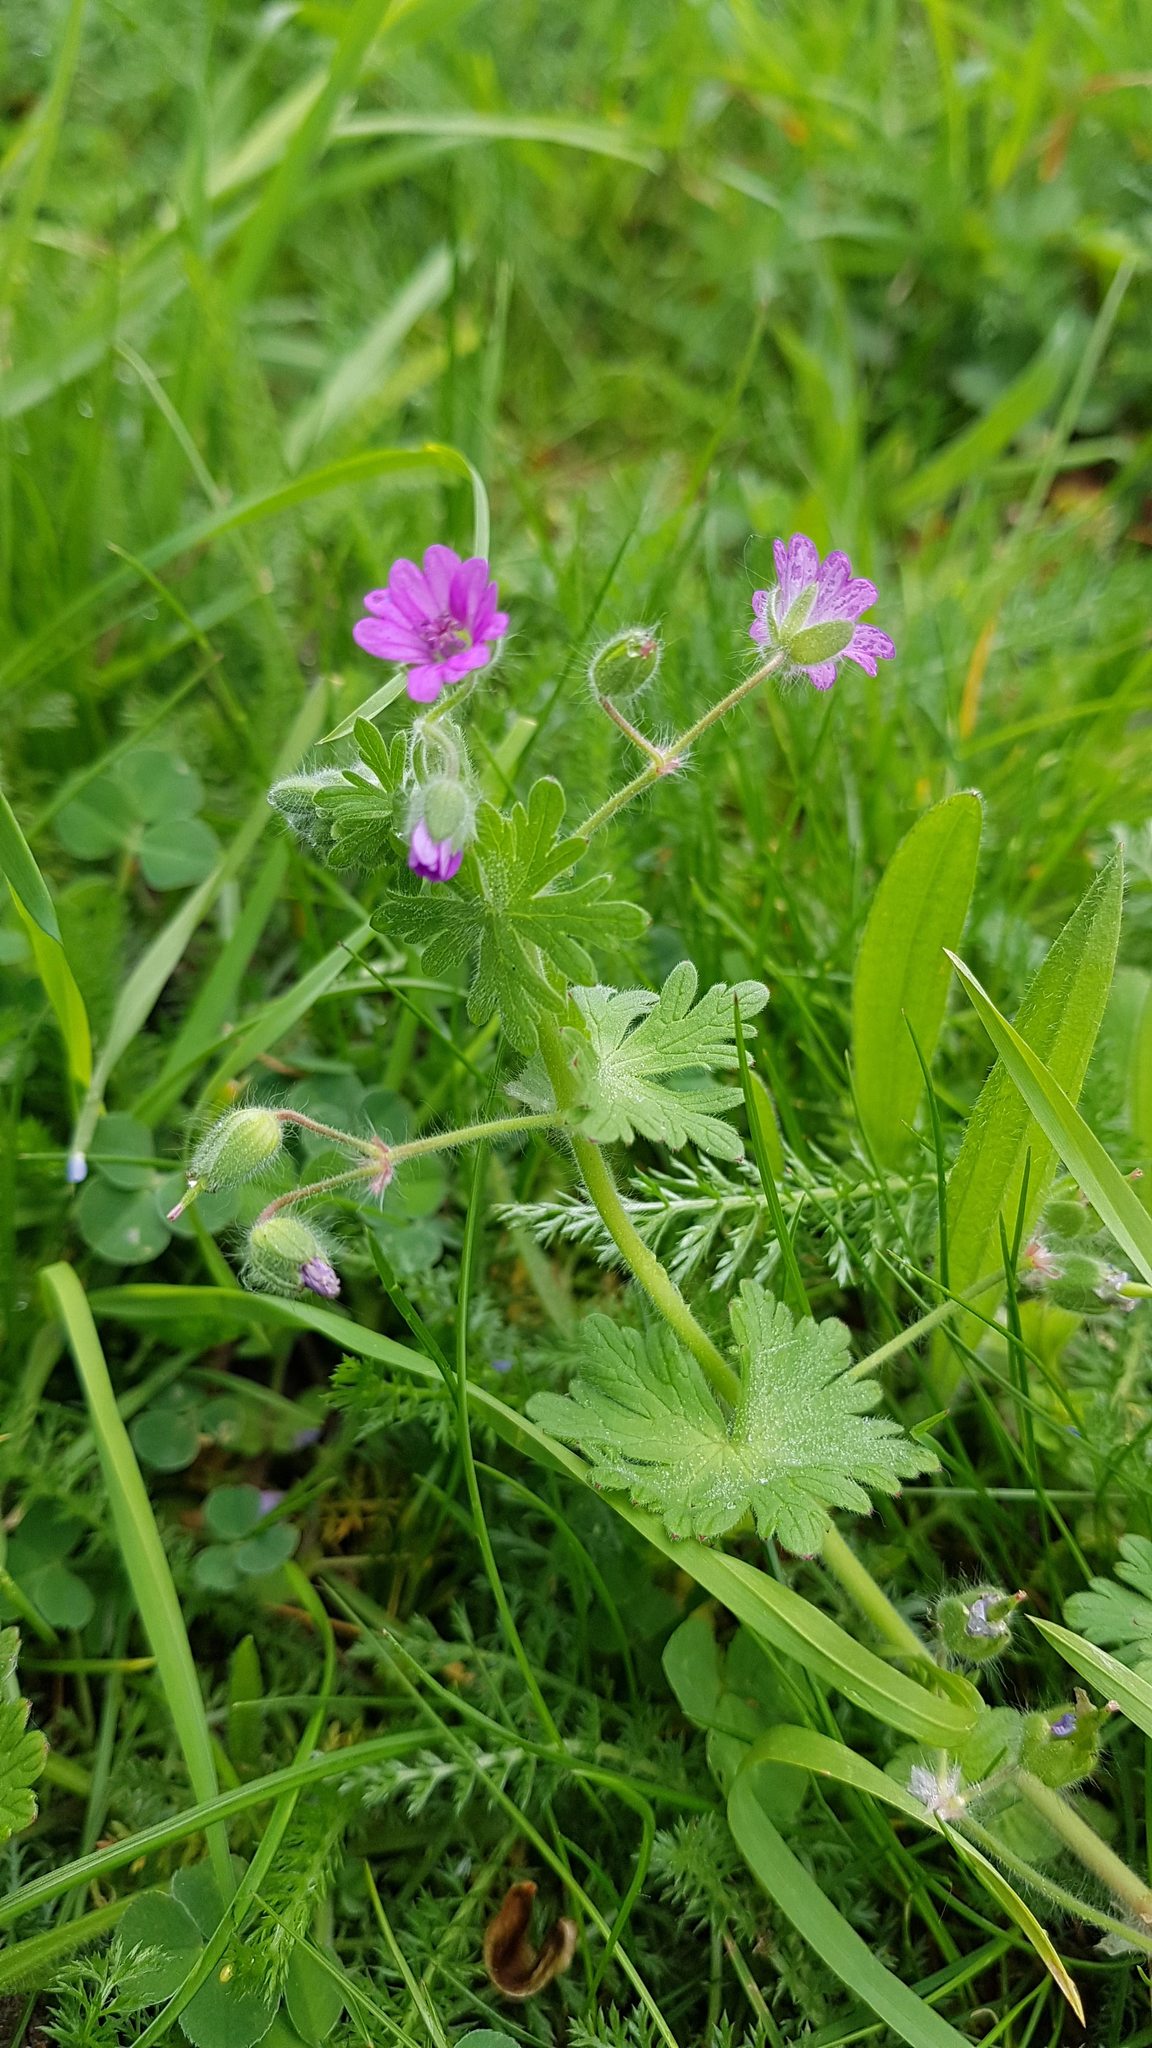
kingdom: Plantae
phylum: Tracheophyta
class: Magnoliopsida
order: Geraniales
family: Geraniaceae
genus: Geranium
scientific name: Geranium molle
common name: Dove's-foot crane's-bill
